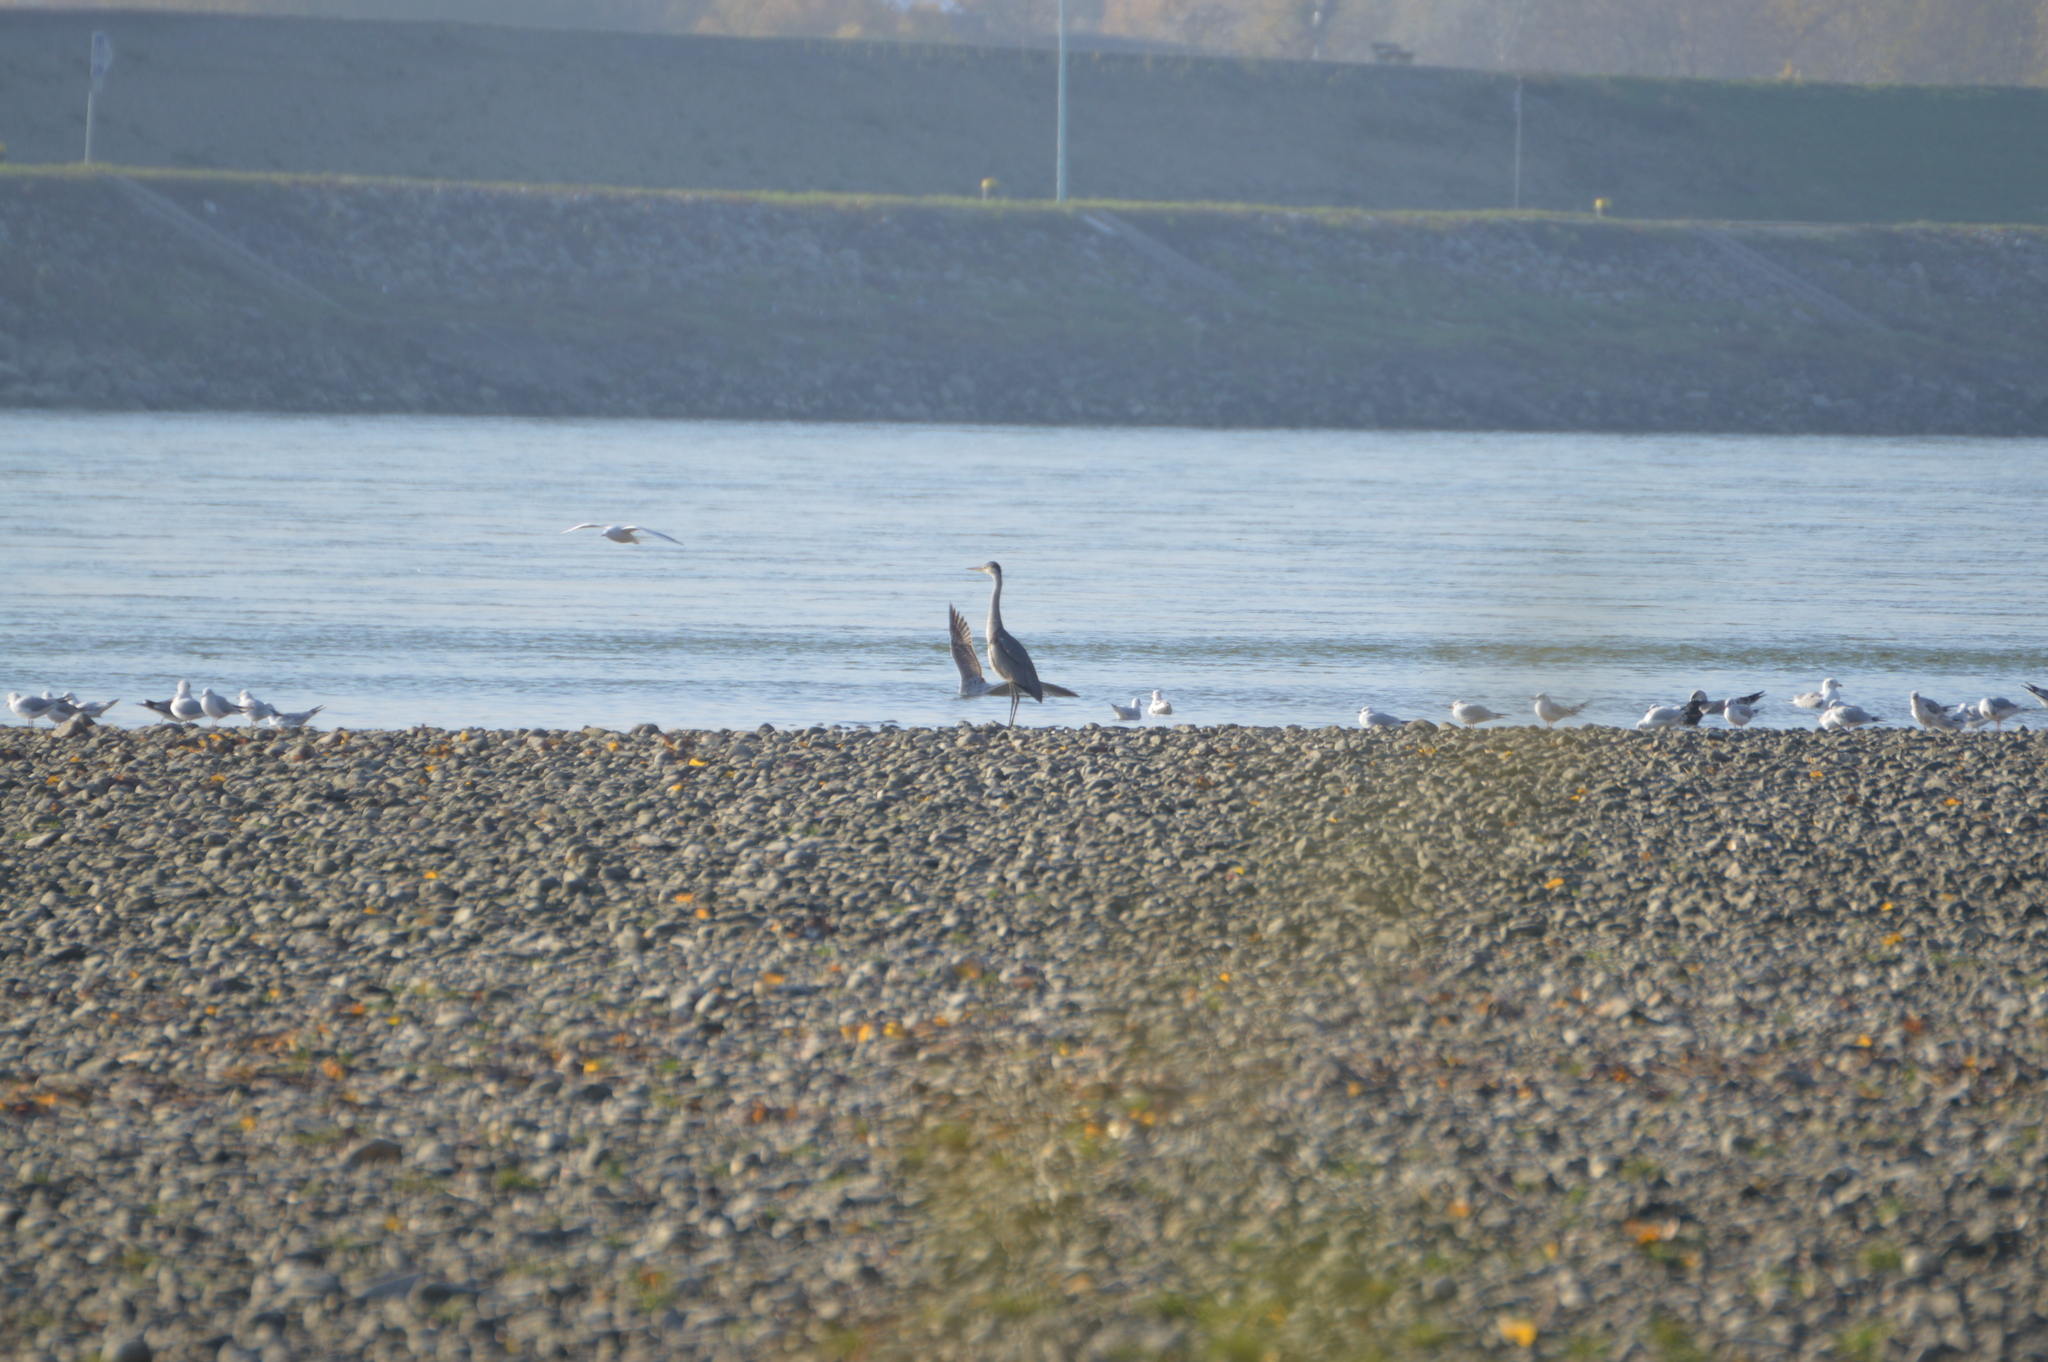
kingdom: Animalia
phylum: Chordata
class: Aves
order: Pelecaniformes
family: Ardeidae
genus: Ardea
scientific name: Ardea cinerea
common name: Grey heron
